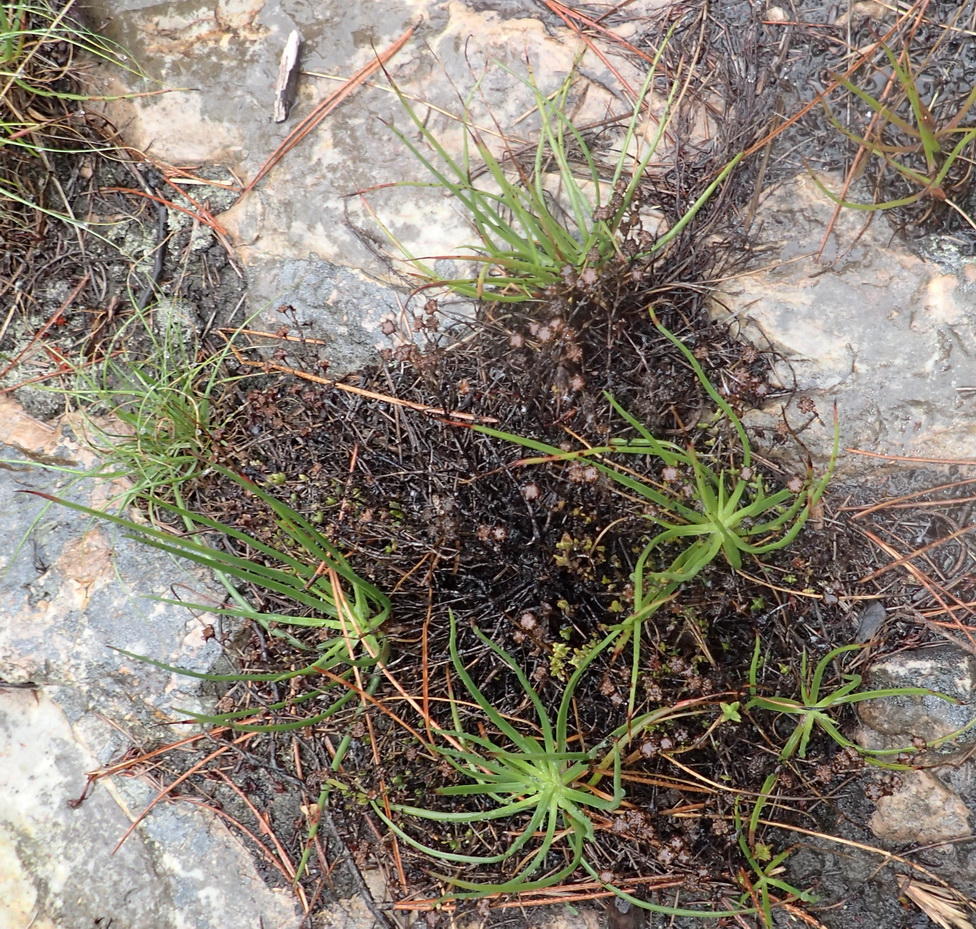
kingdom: Plantae
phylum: Tracheophyta
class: Liliopsida
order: Asparagales
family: Asphodelaceae
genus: Bulbine
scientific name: Bulbine lagopus
